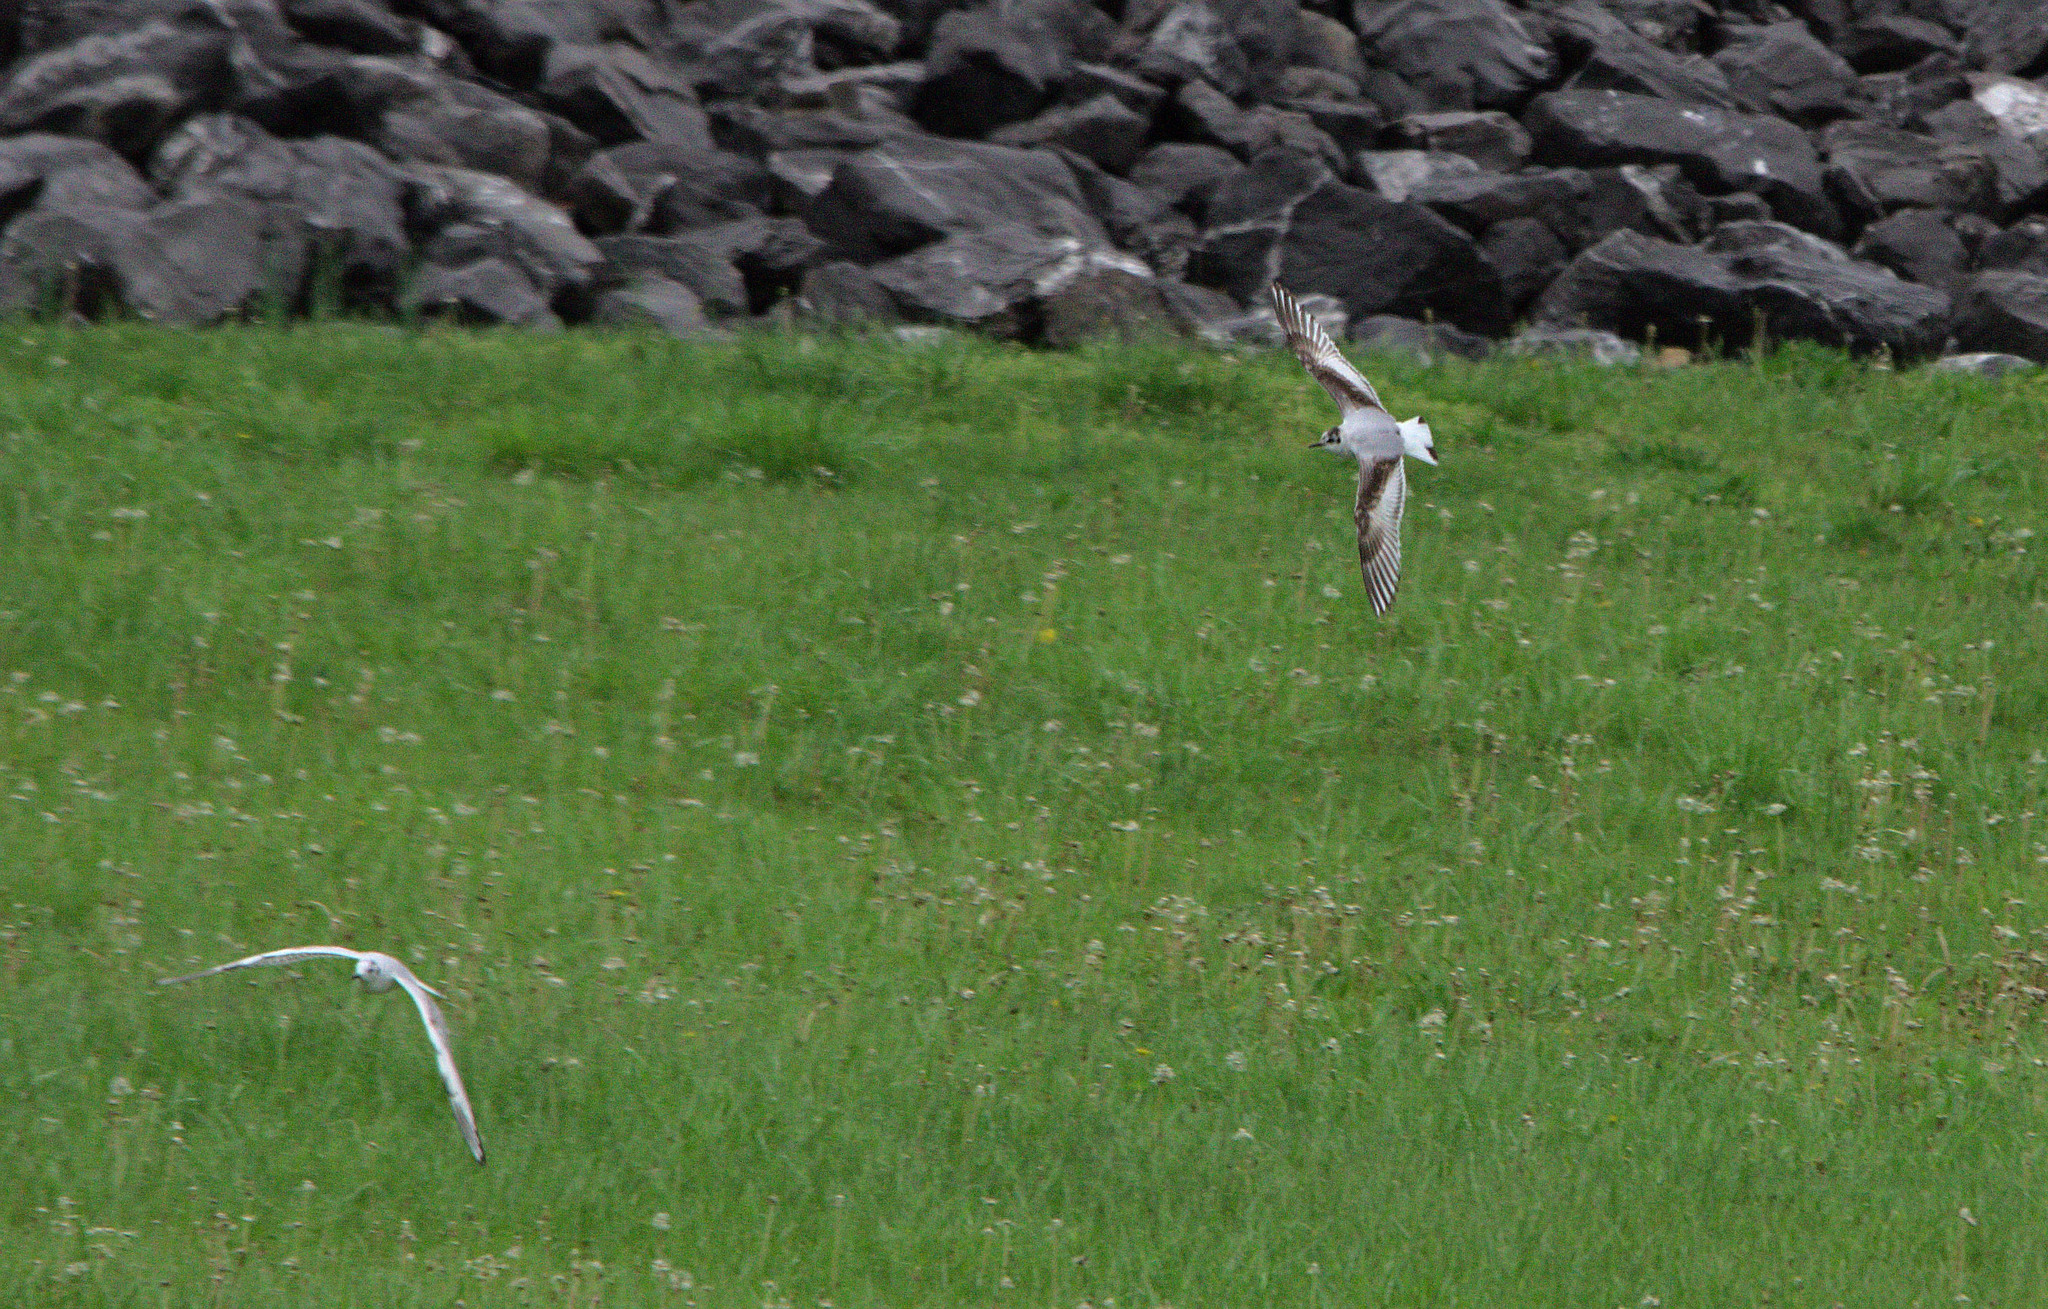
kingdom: Animalia
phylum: Chordata
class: Aves
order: Charadriiformes
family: Laridae
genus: Hydrocoloeus
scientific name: Hydrocoloeus minutus
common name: Little gull
